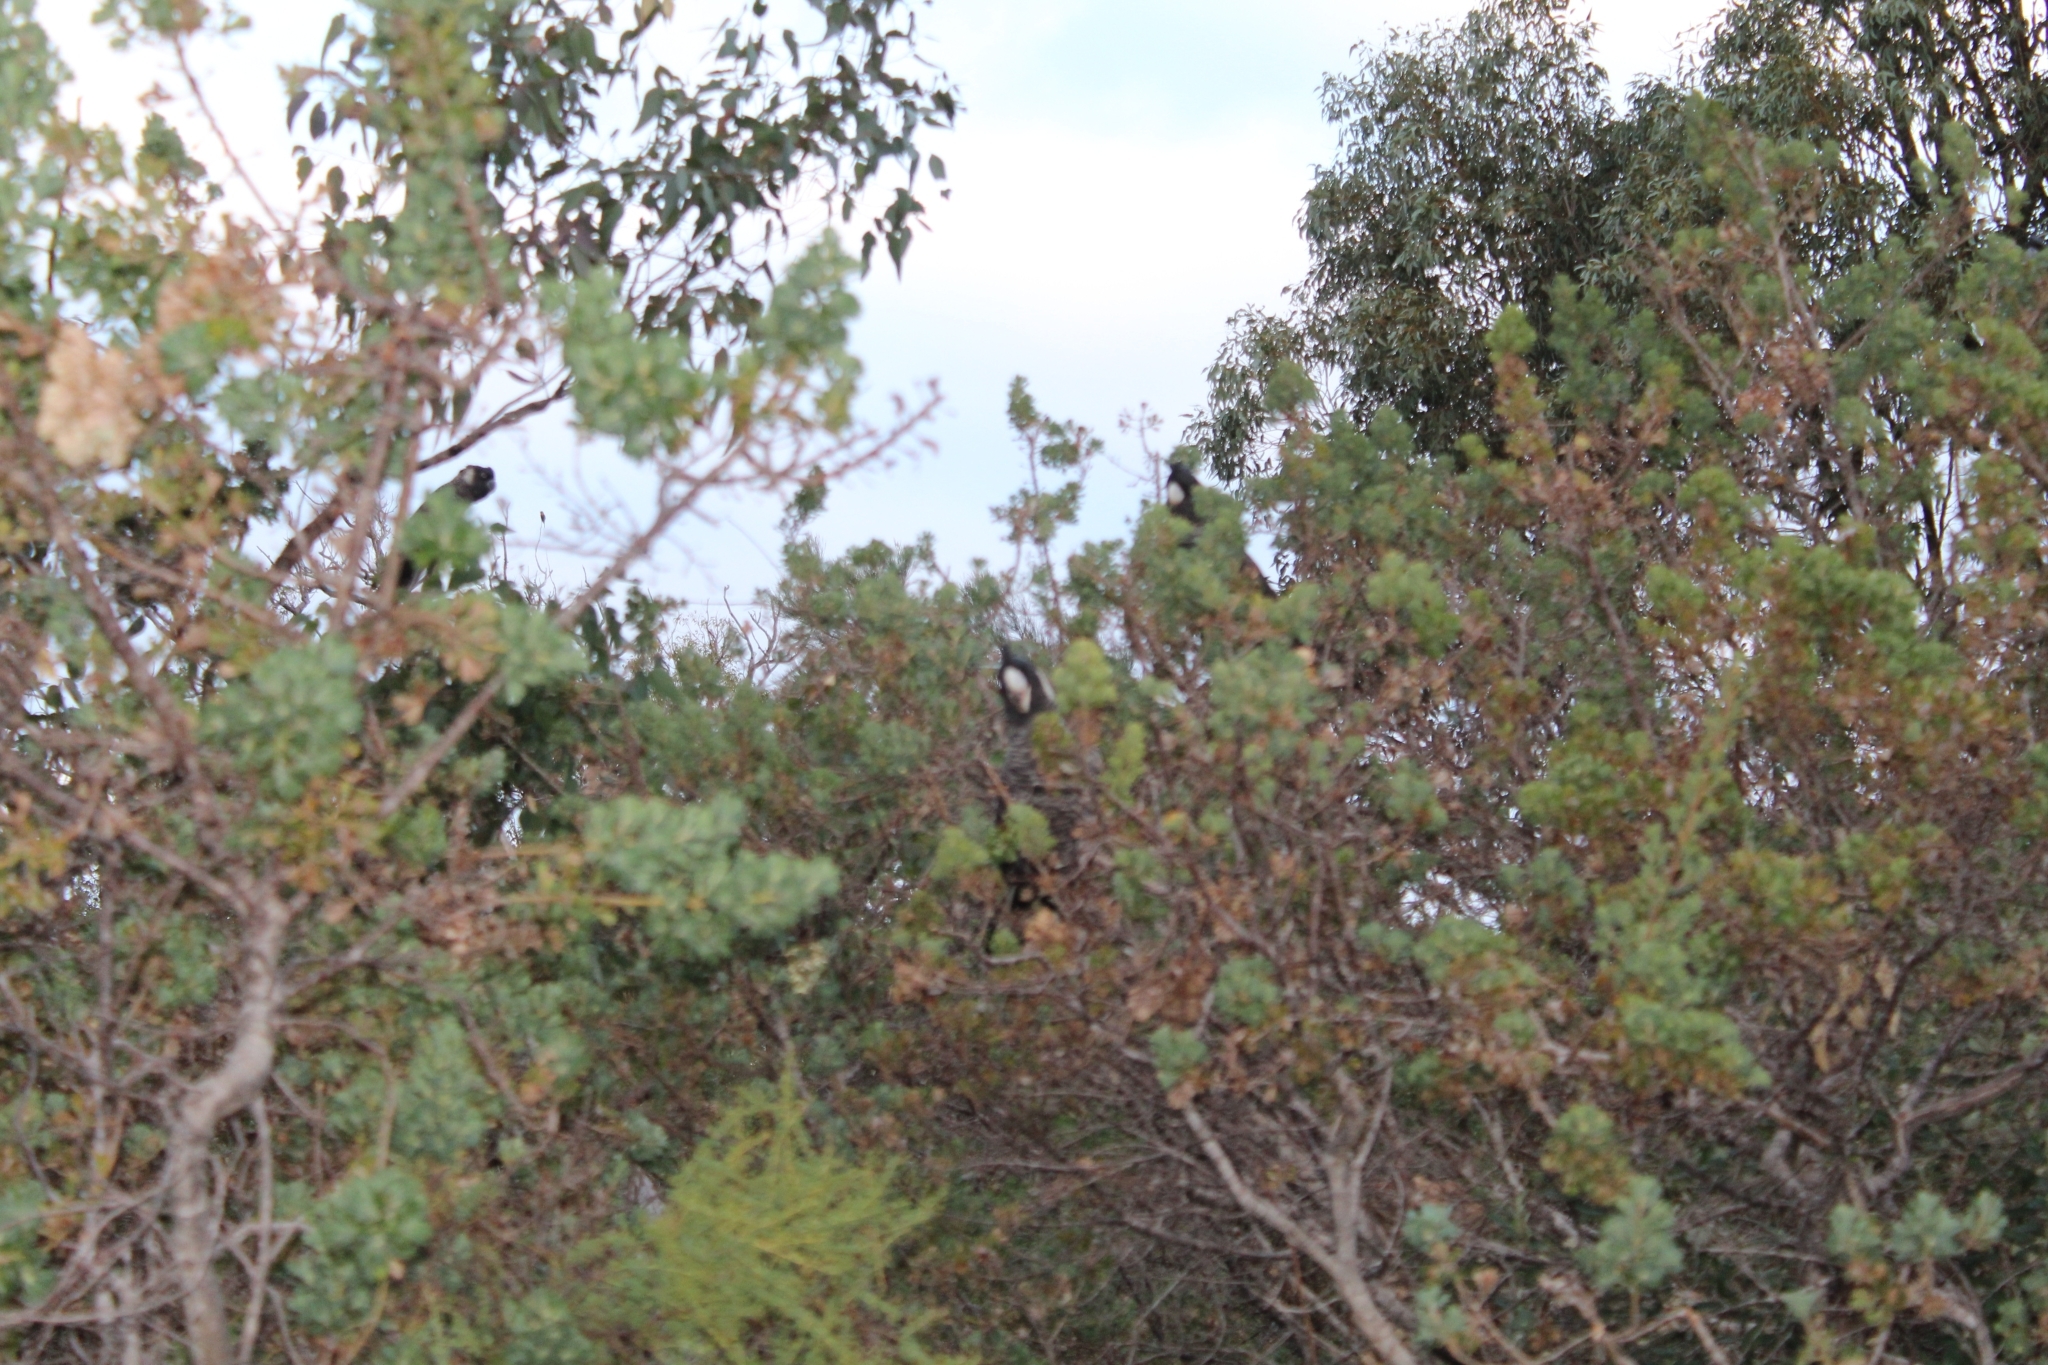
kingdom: Animalia
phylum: Chordata
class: Aves
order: Psittaciformes
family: Cacatuidae
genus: Zanda
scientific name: Zanda latirostris
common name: Short-billed black-cockatoo
